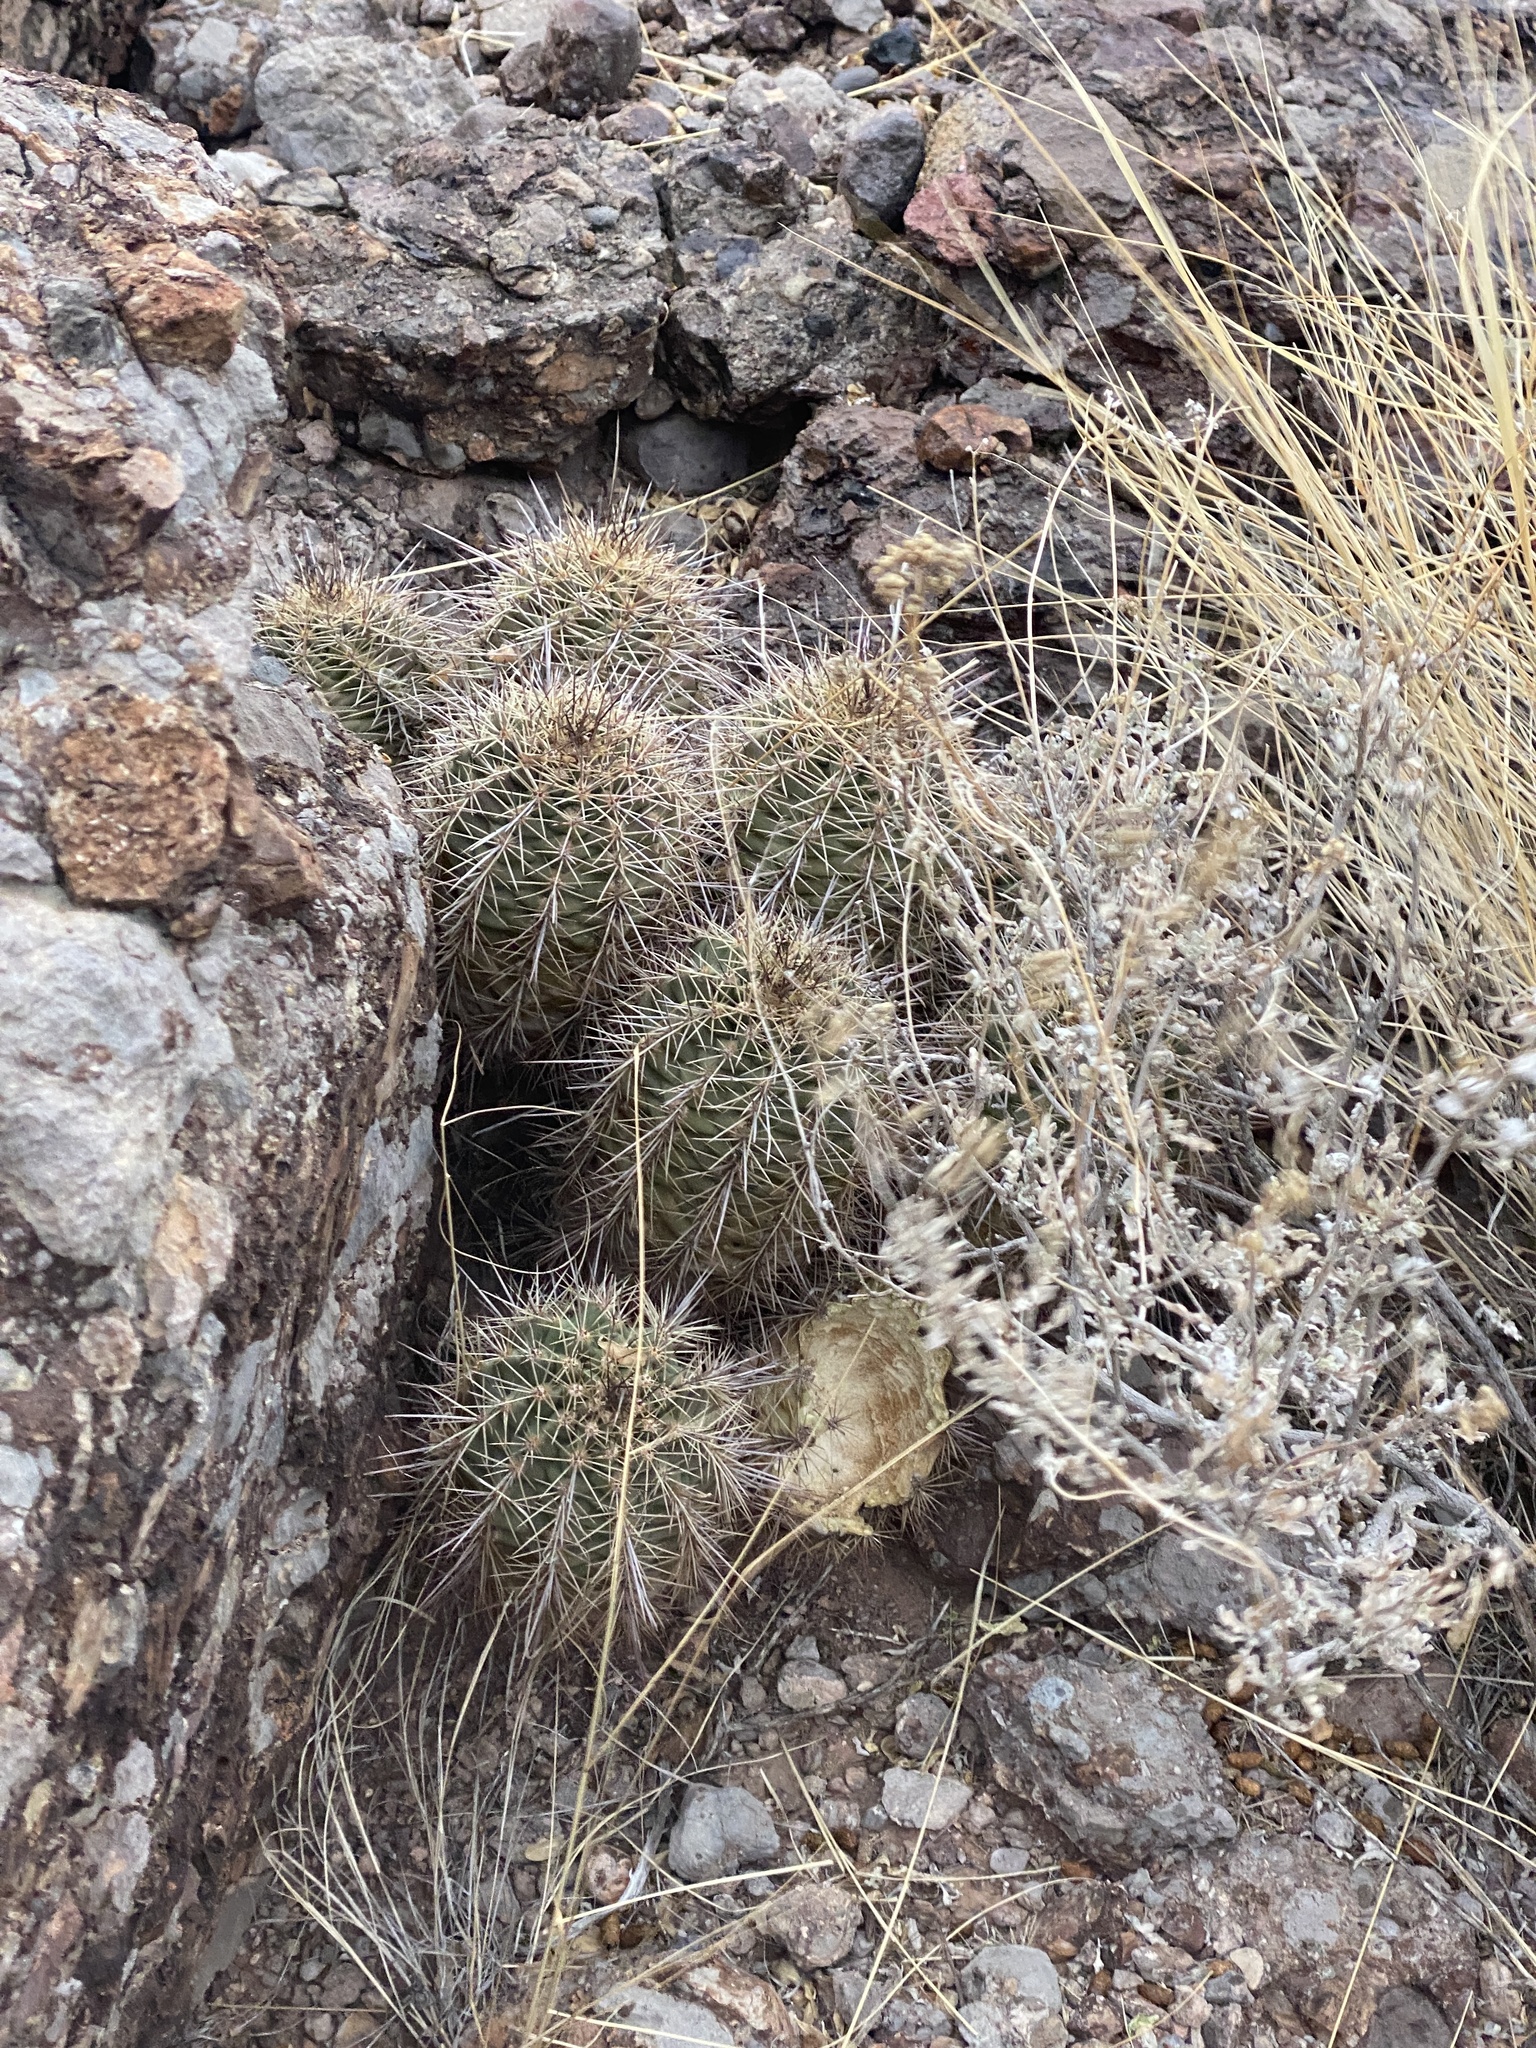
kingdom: Plantae
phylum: Tracheophyta
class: Magnoliopsida
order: Caryophyllales
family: Cactaceae
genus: Echinocereus
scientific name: Echinocereus coccineus
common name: Scarlet hedgehog cactus
